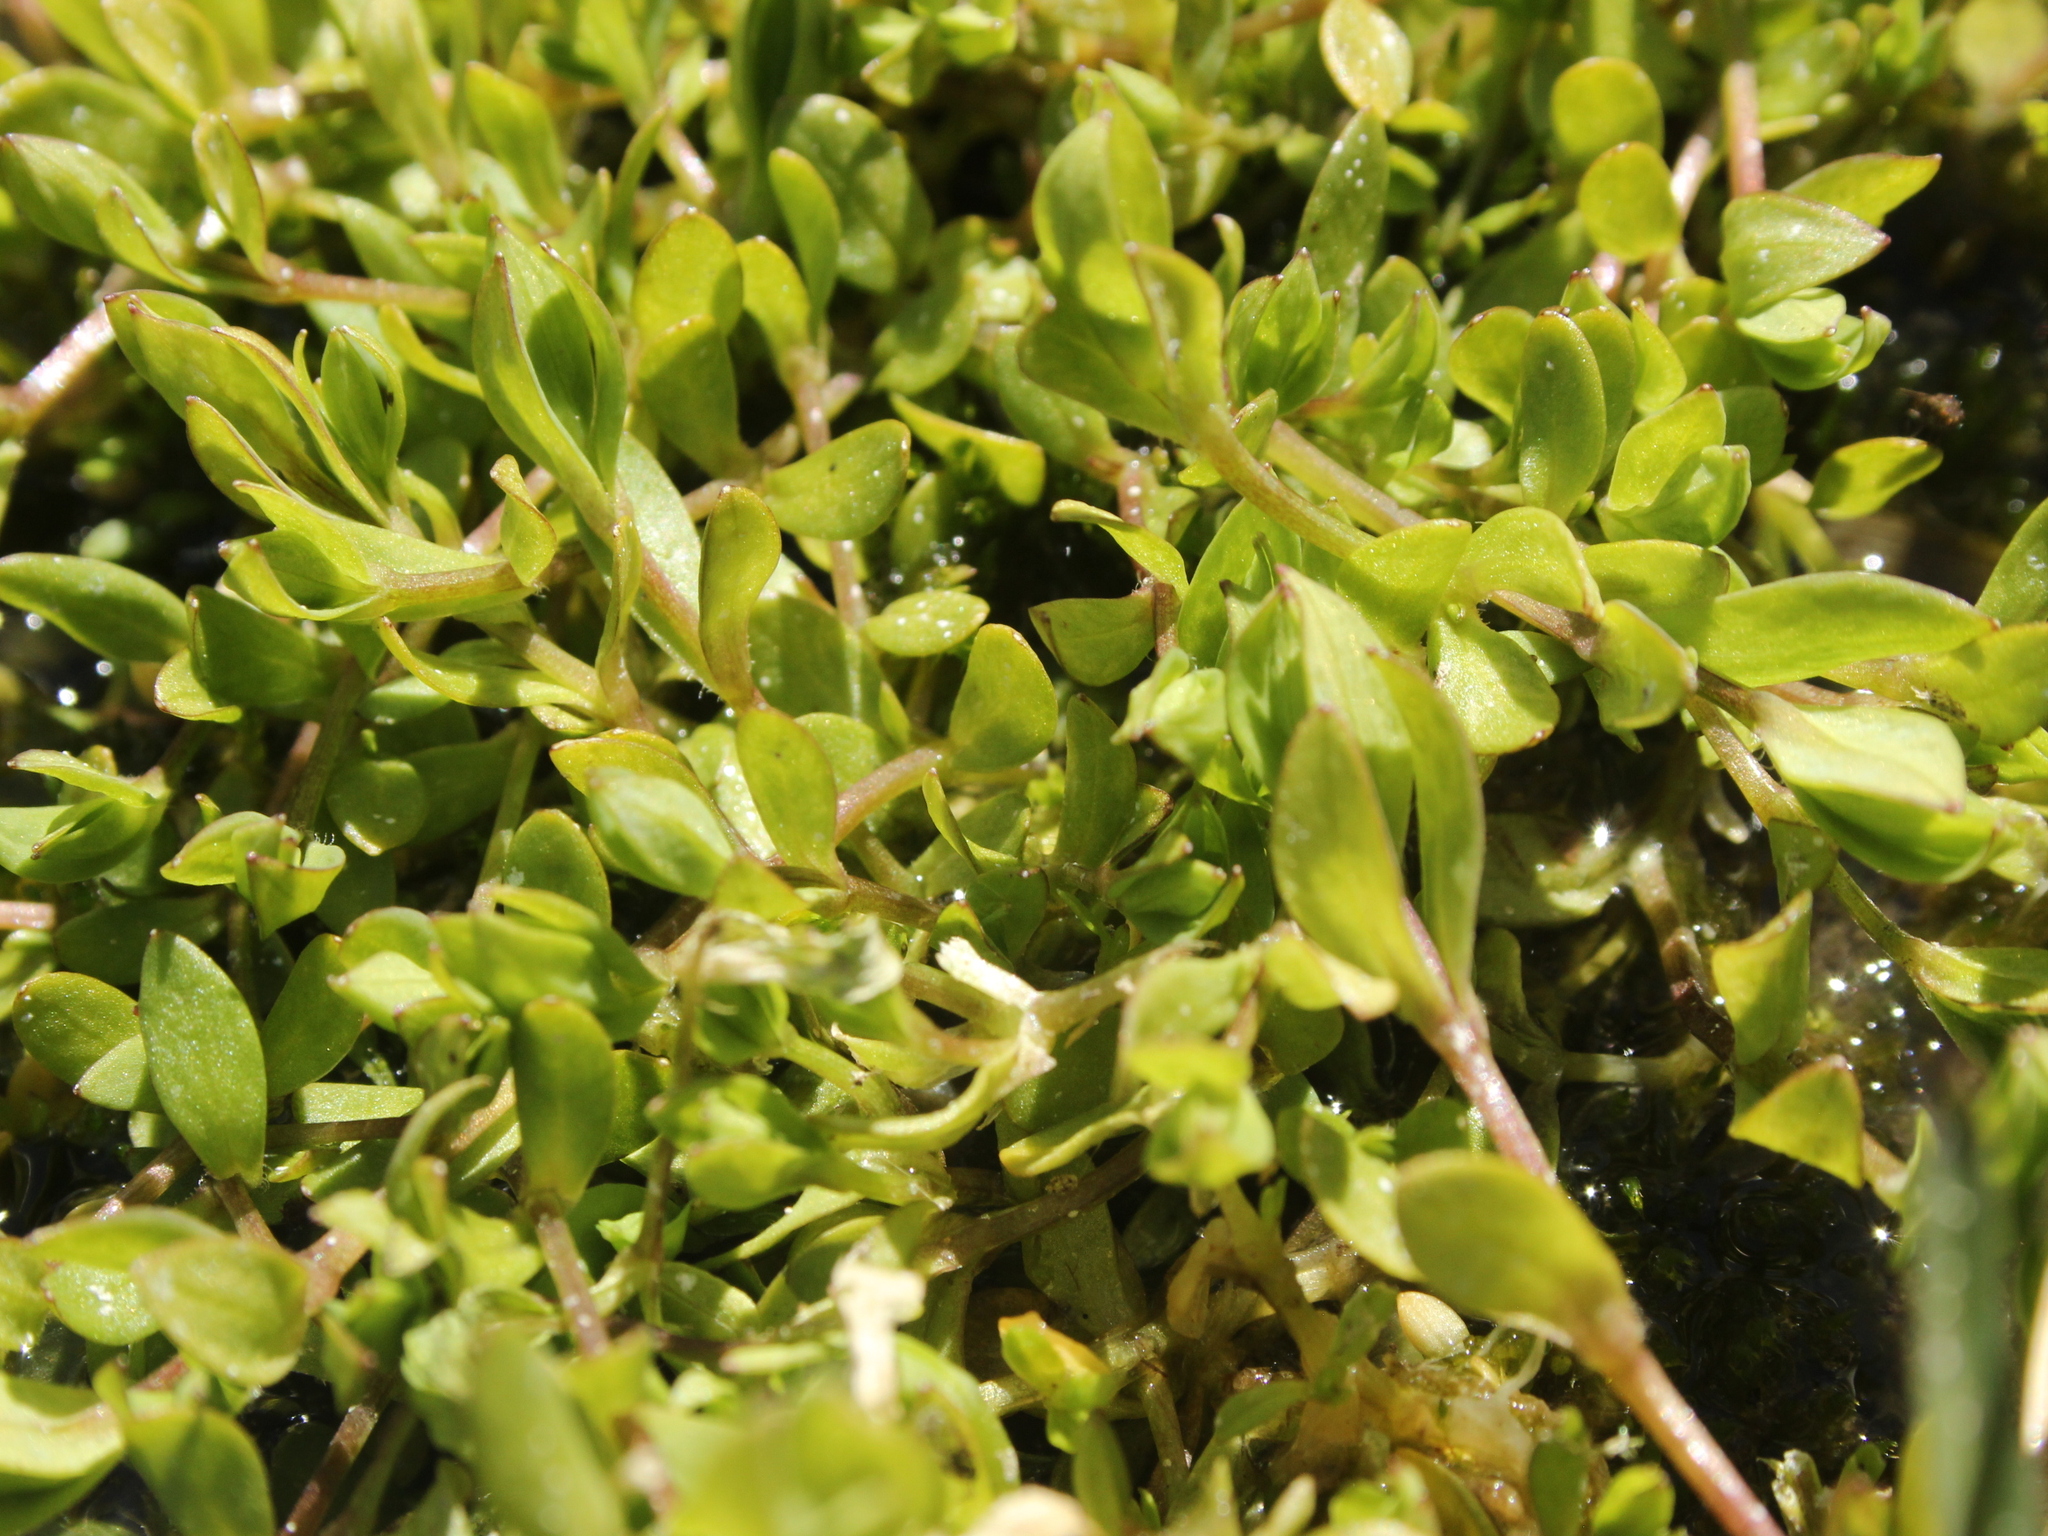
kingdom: Plantae
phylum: Tracheophyta
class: Magnoliopsida
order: Caryophyllales
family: Montiaceae
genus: Montia
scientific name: Montia fontana
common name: Blinks
